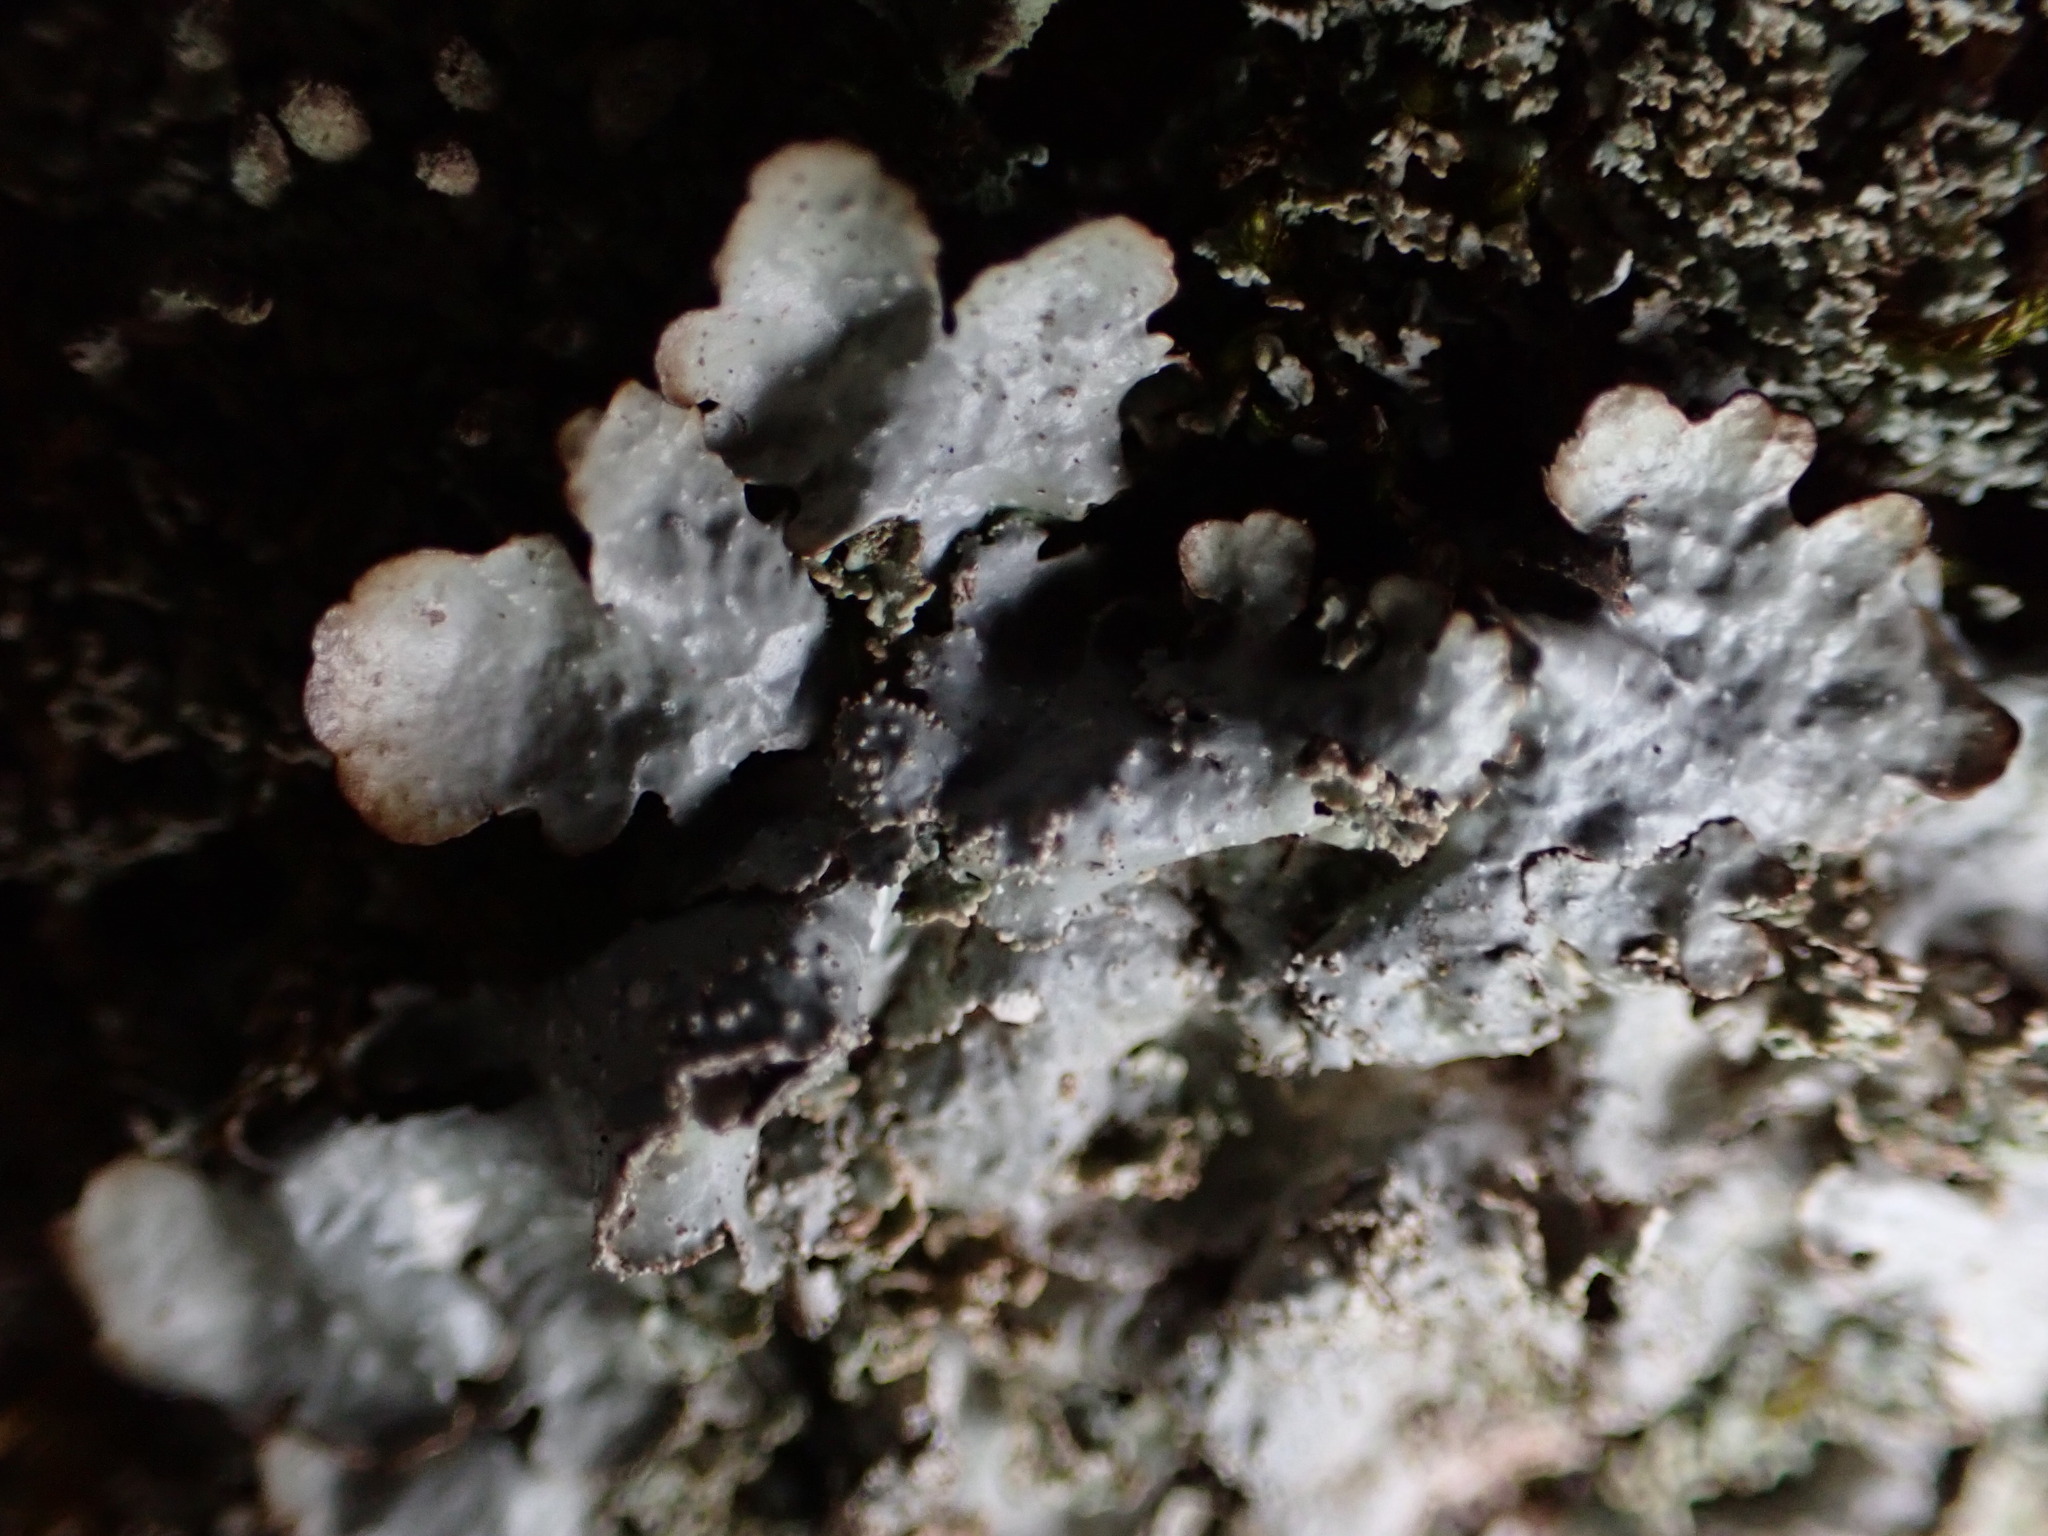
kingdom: Fungi
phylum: Ascomycota
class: Lecanoromycetes
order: Lecanorales
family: Parmeliaceae
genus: Punctelia
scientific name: Punctelia rudecta
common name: Rough speckled shield lichen
